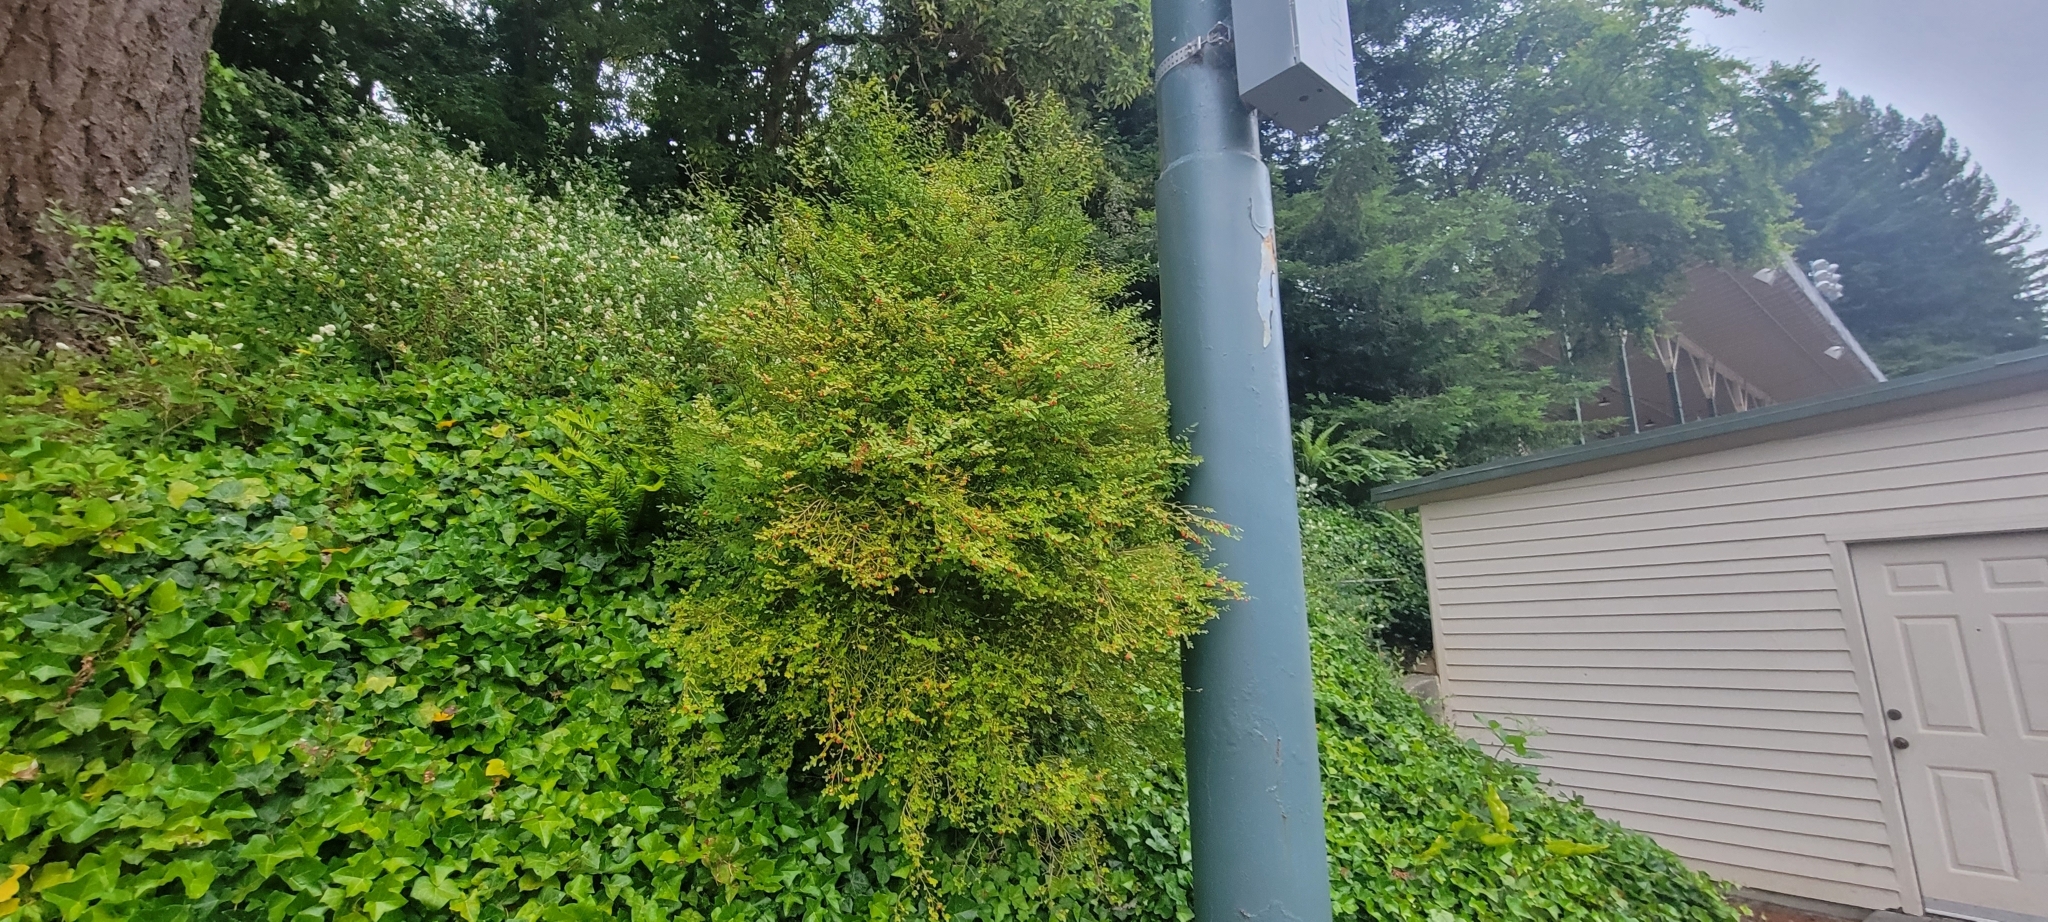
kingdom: Plantae
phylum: Tracheophyta
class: Magnoliopsida
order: Ericales
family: Ericaceae
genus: Vaccinium
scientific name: Vaccinium parvifolium
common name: Red-huckleberry
